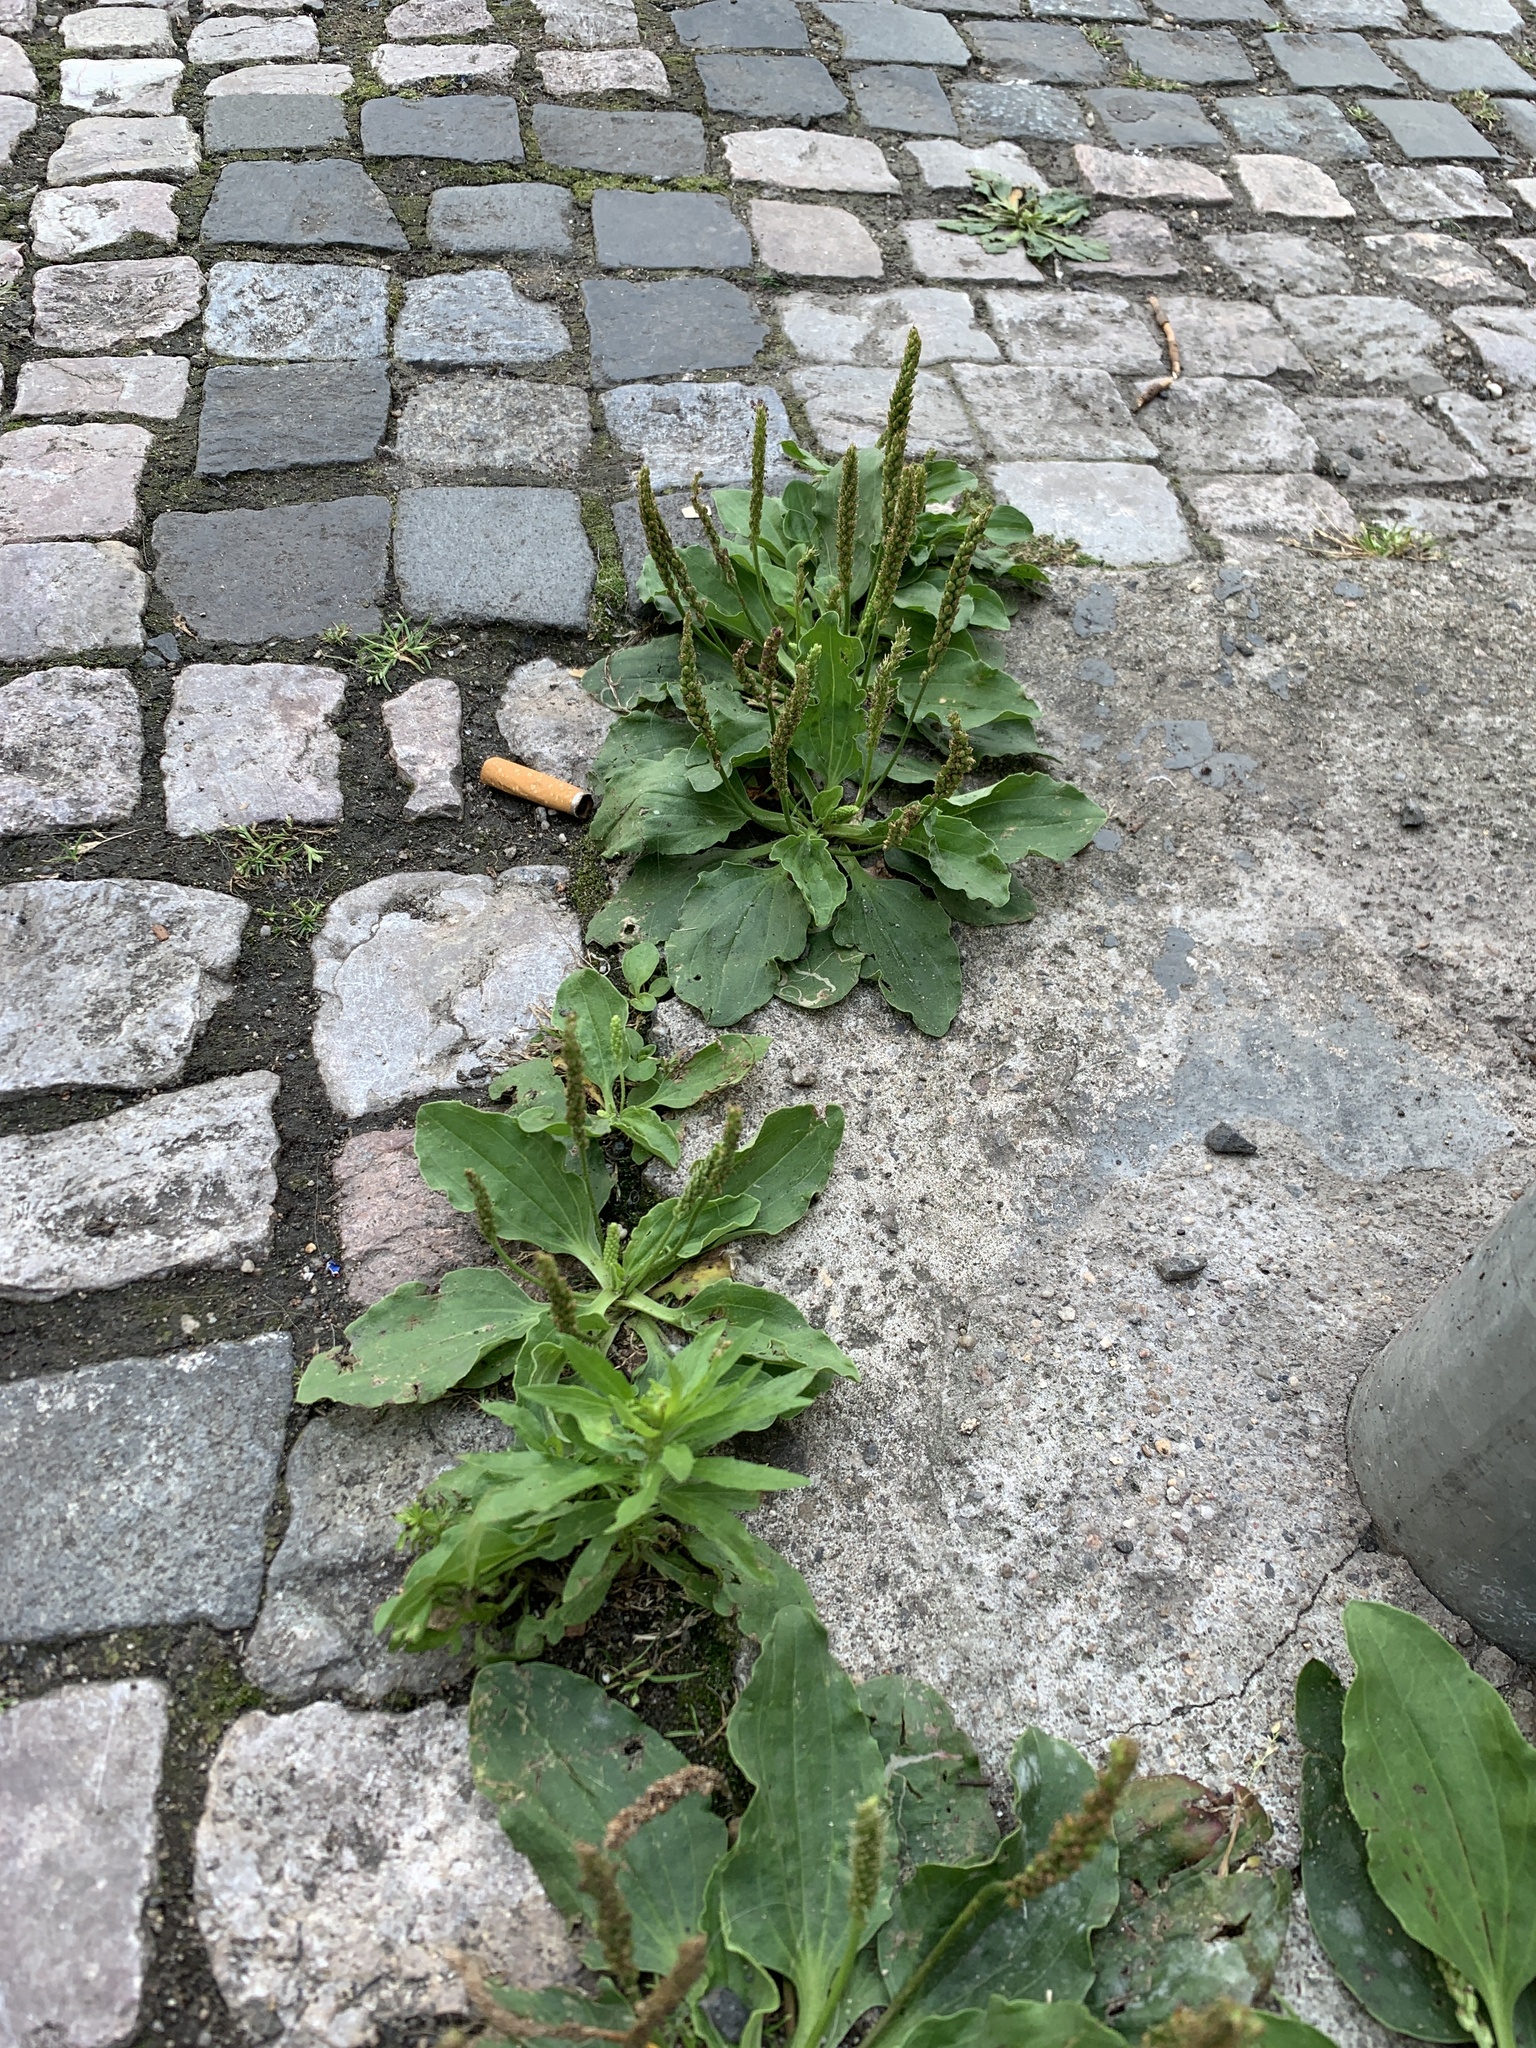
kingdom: Plantae
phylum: Tracheophyta
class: Magnoliopsida
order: Lamiales
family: Plantaginaceae
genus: Plantago
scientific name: Plantago major
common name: Common plantain
